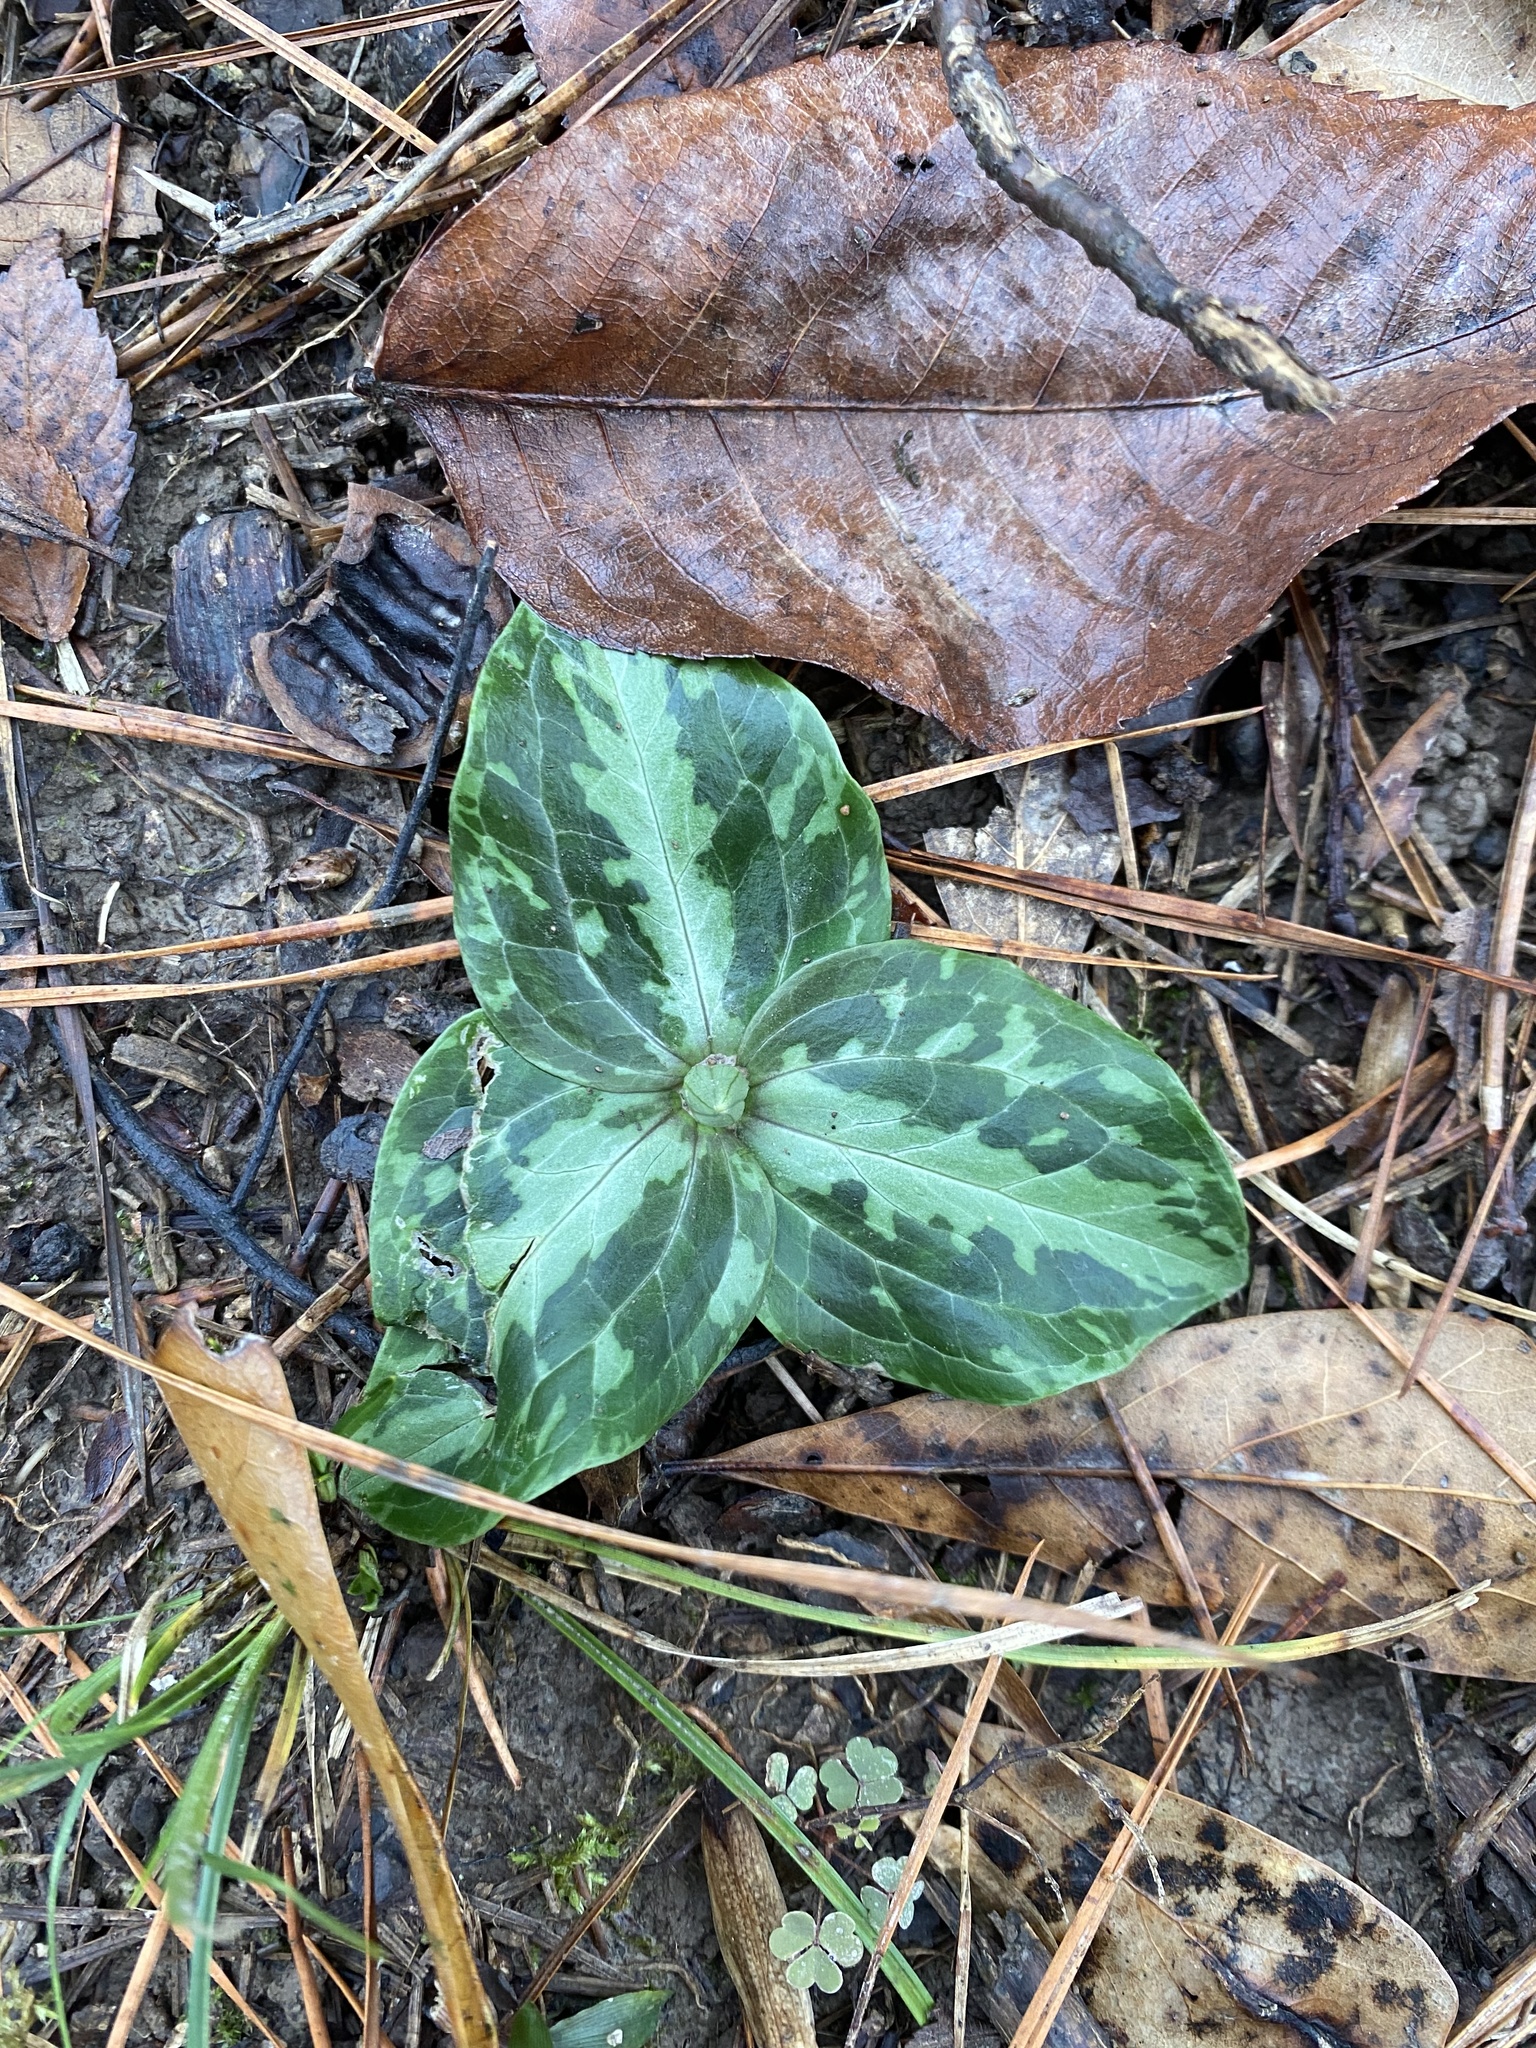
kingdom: Plantae
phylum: Tracheophyta
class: Liliopsida
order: Liliales
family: Melanthiaceae
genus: Trillium
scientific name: Trillium foetidissimum
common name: Mississippi river trillium
